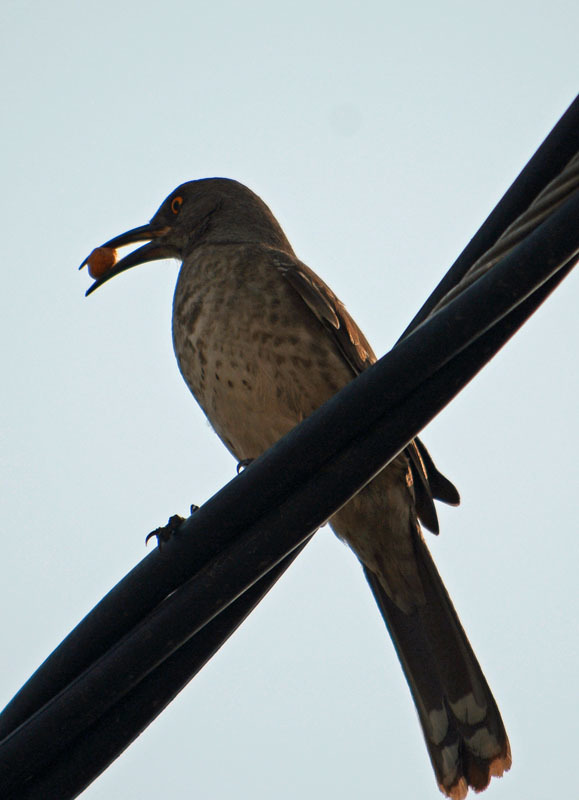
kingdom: Animalia
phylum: Chordata
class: Aves
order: Passeriformes
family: Mimidae
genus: Toxostoma
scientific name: Toxostoma curvirostre
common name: Curve-billed thrasher
